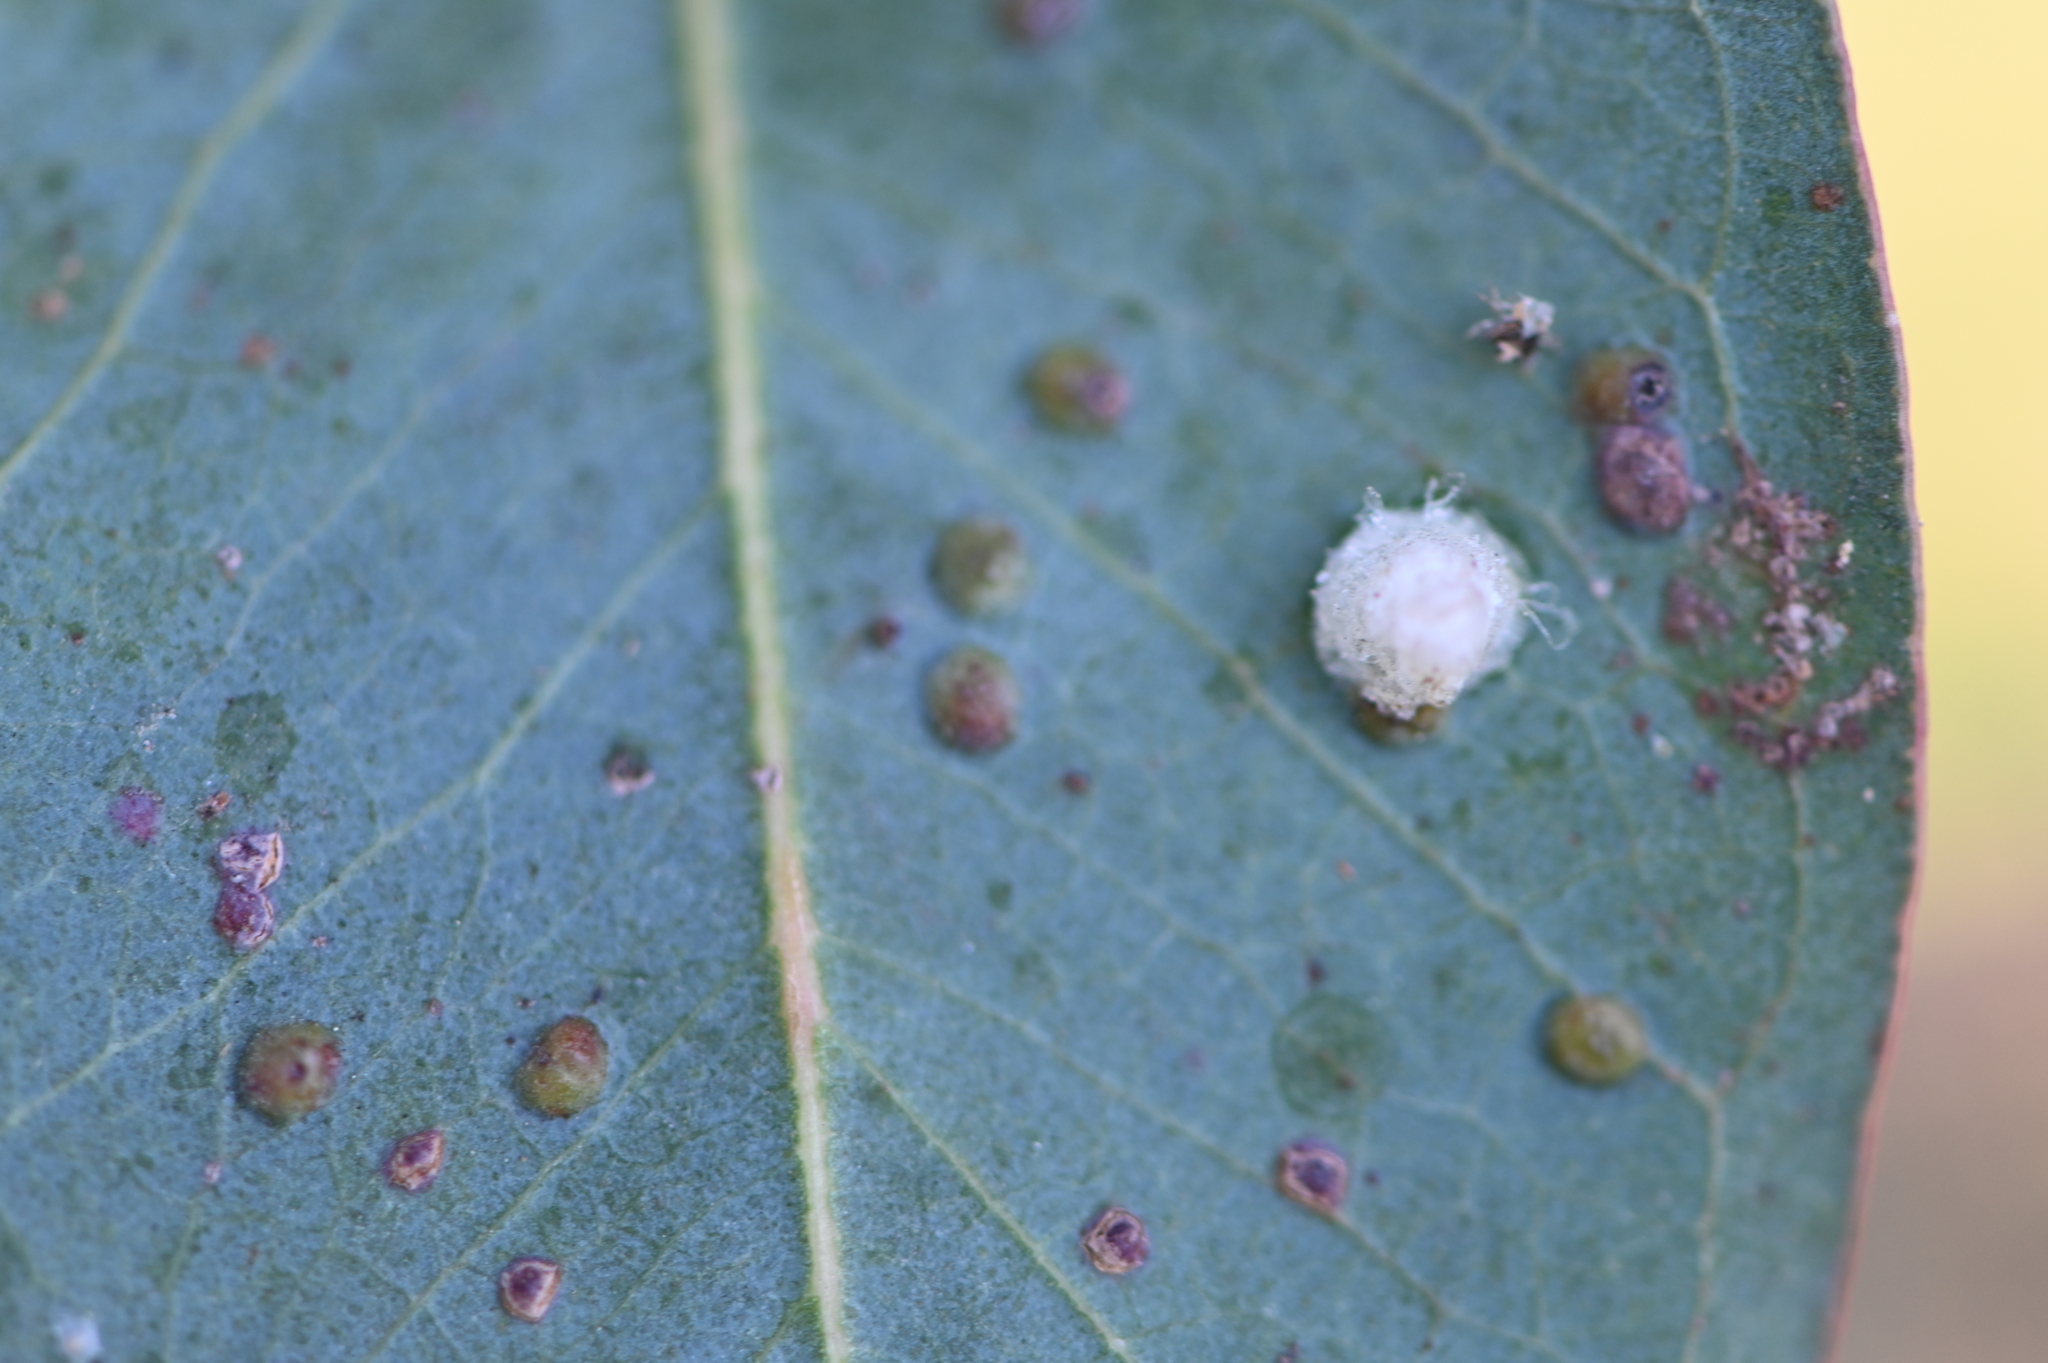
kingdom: Animalia
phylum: Arthropoda
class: Insecta
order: Hemiptera
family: Aphalaridae
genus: Glycaspis
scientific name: Glycaspis brimblecombei
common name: Red gum lerp psyllid
